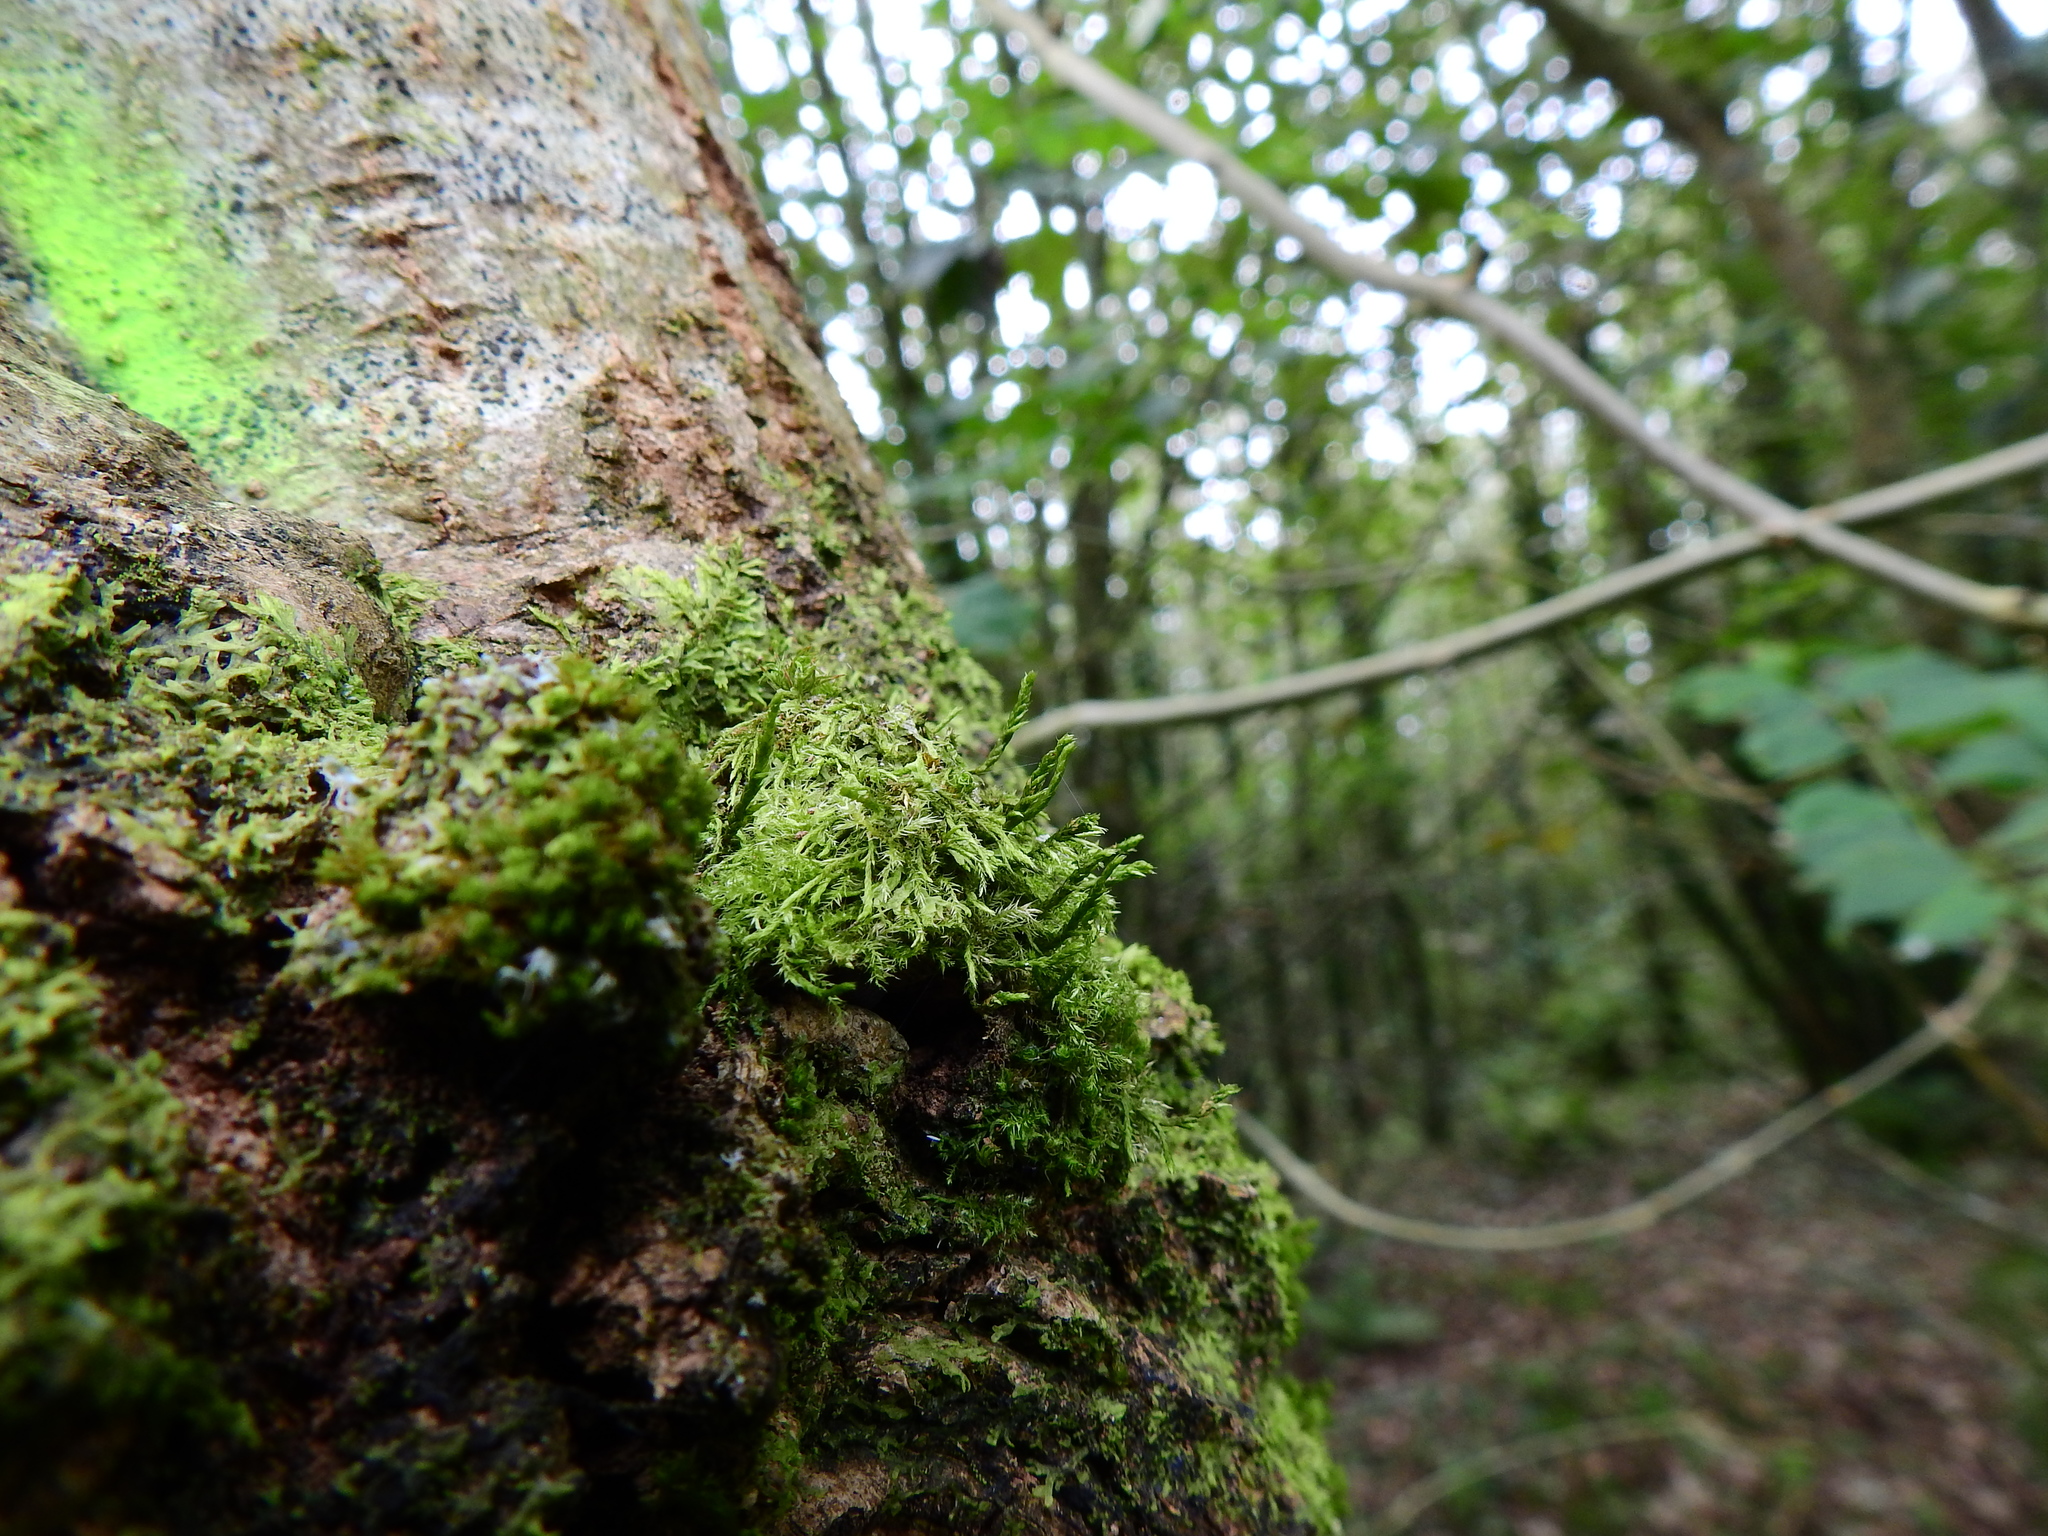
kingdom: Plantae
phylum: Bryophyta
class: Bryopsida
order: Hypnales
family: Cryphaeaceae
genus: Cryphaea
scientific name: Cryphaea heteromalla
